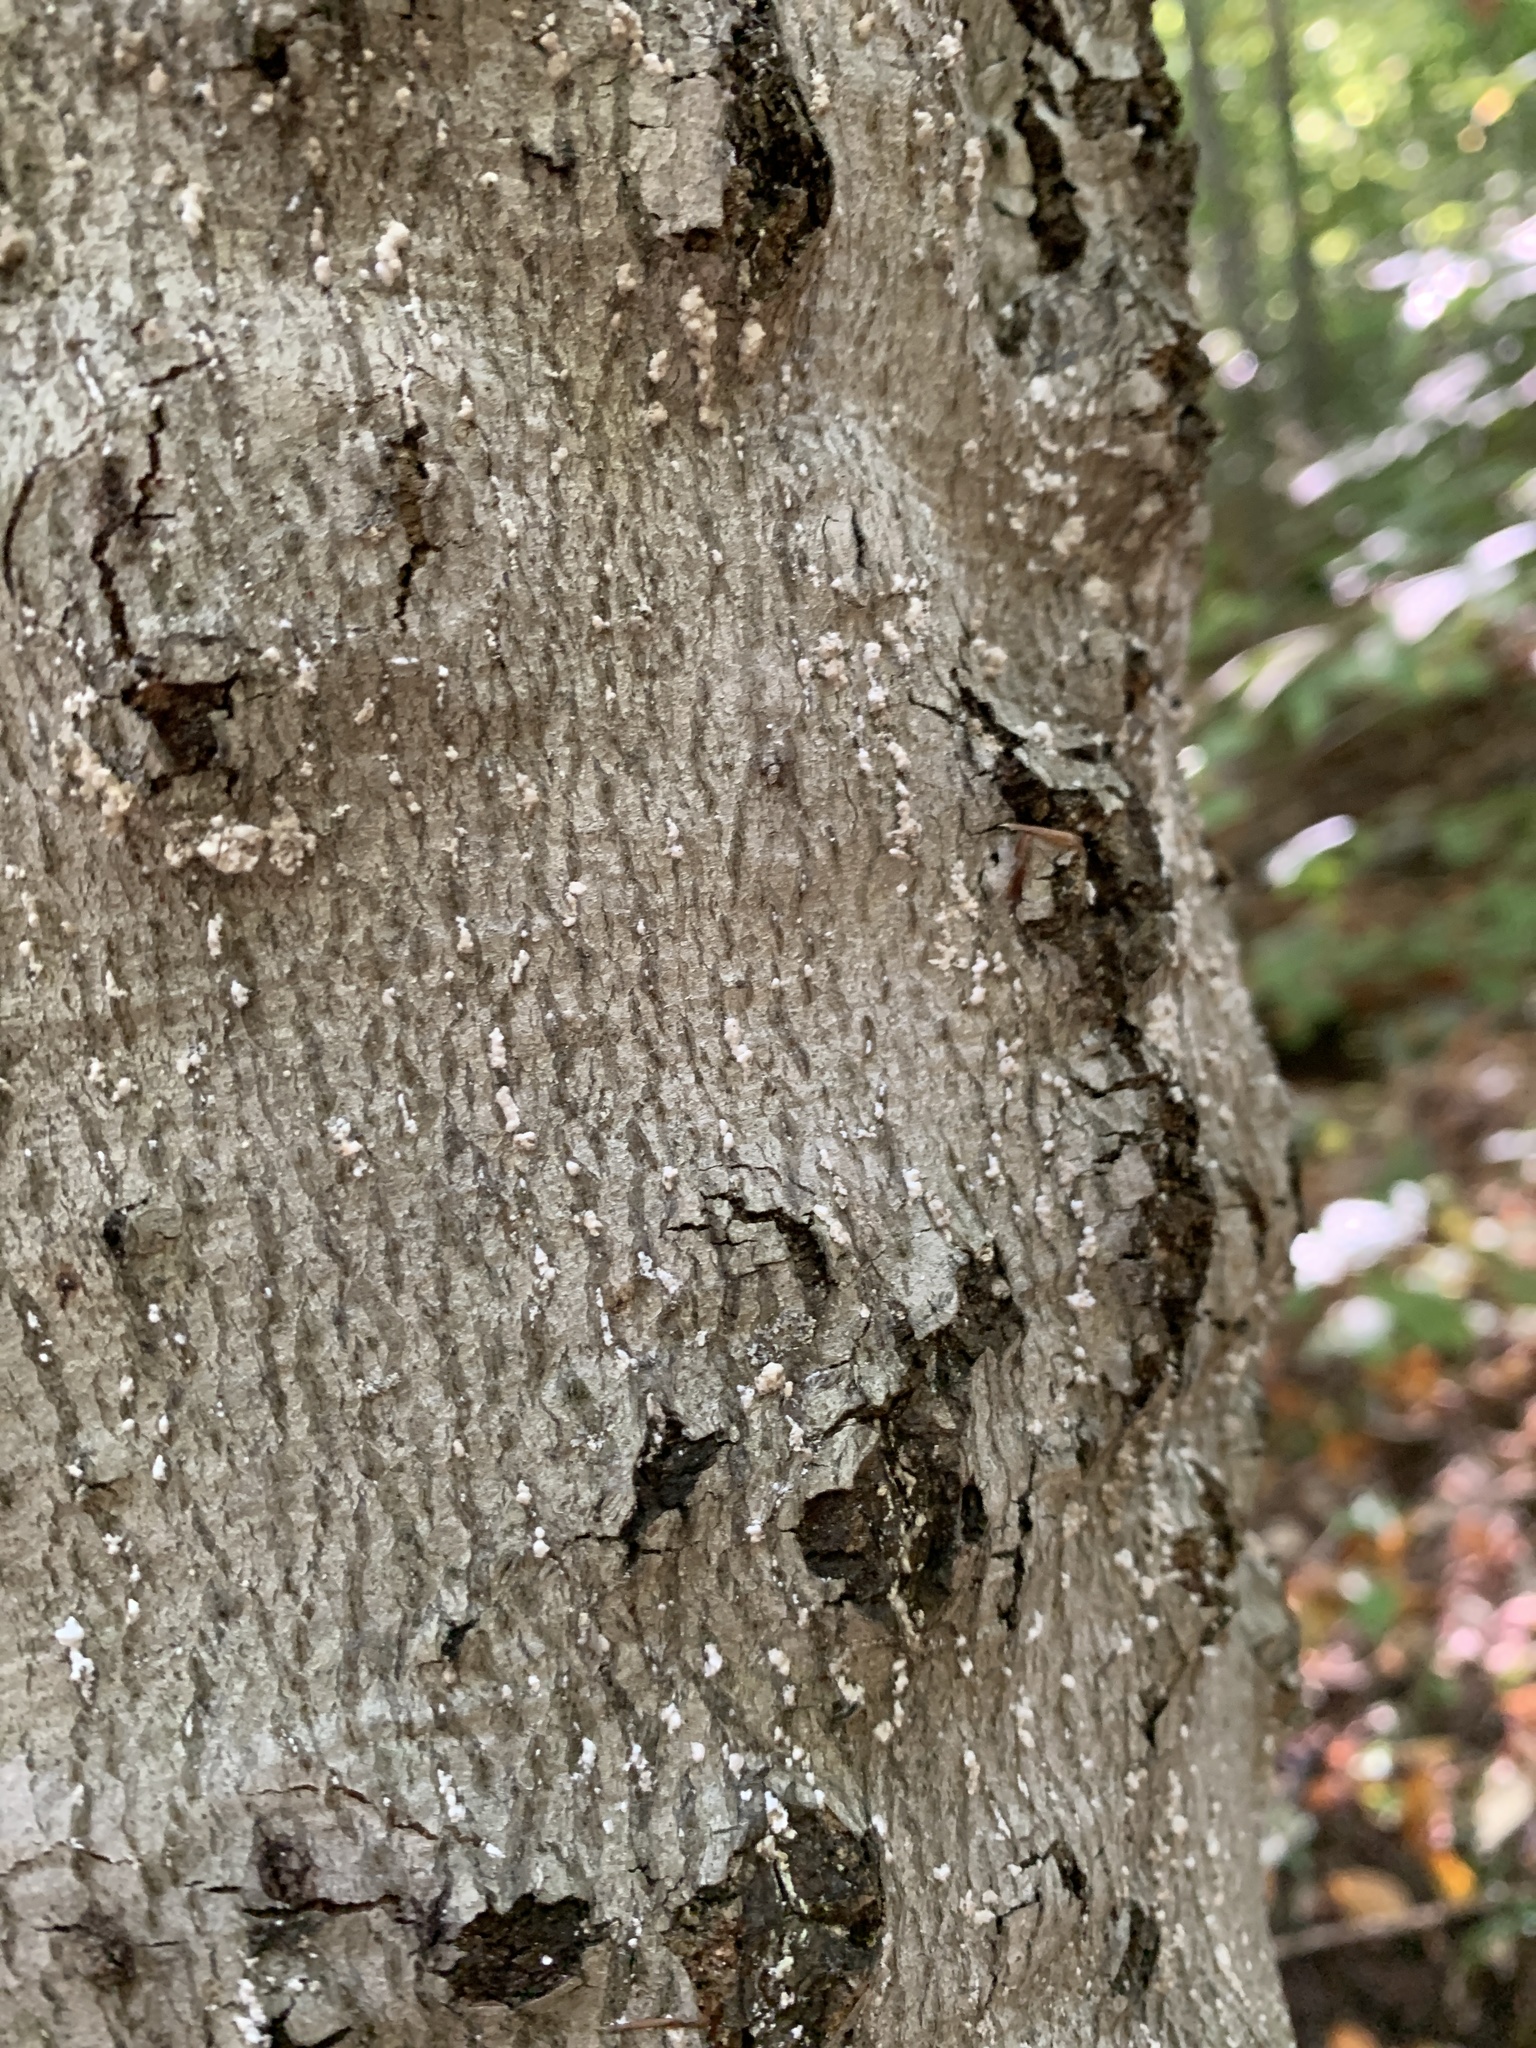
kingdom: Animalia
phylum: Arthropoda
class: Insecta
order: Hemiptera
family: Eriococcidae
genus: Cryptococcus
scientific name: Cryptococcus fagisuga
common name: Beech scale
